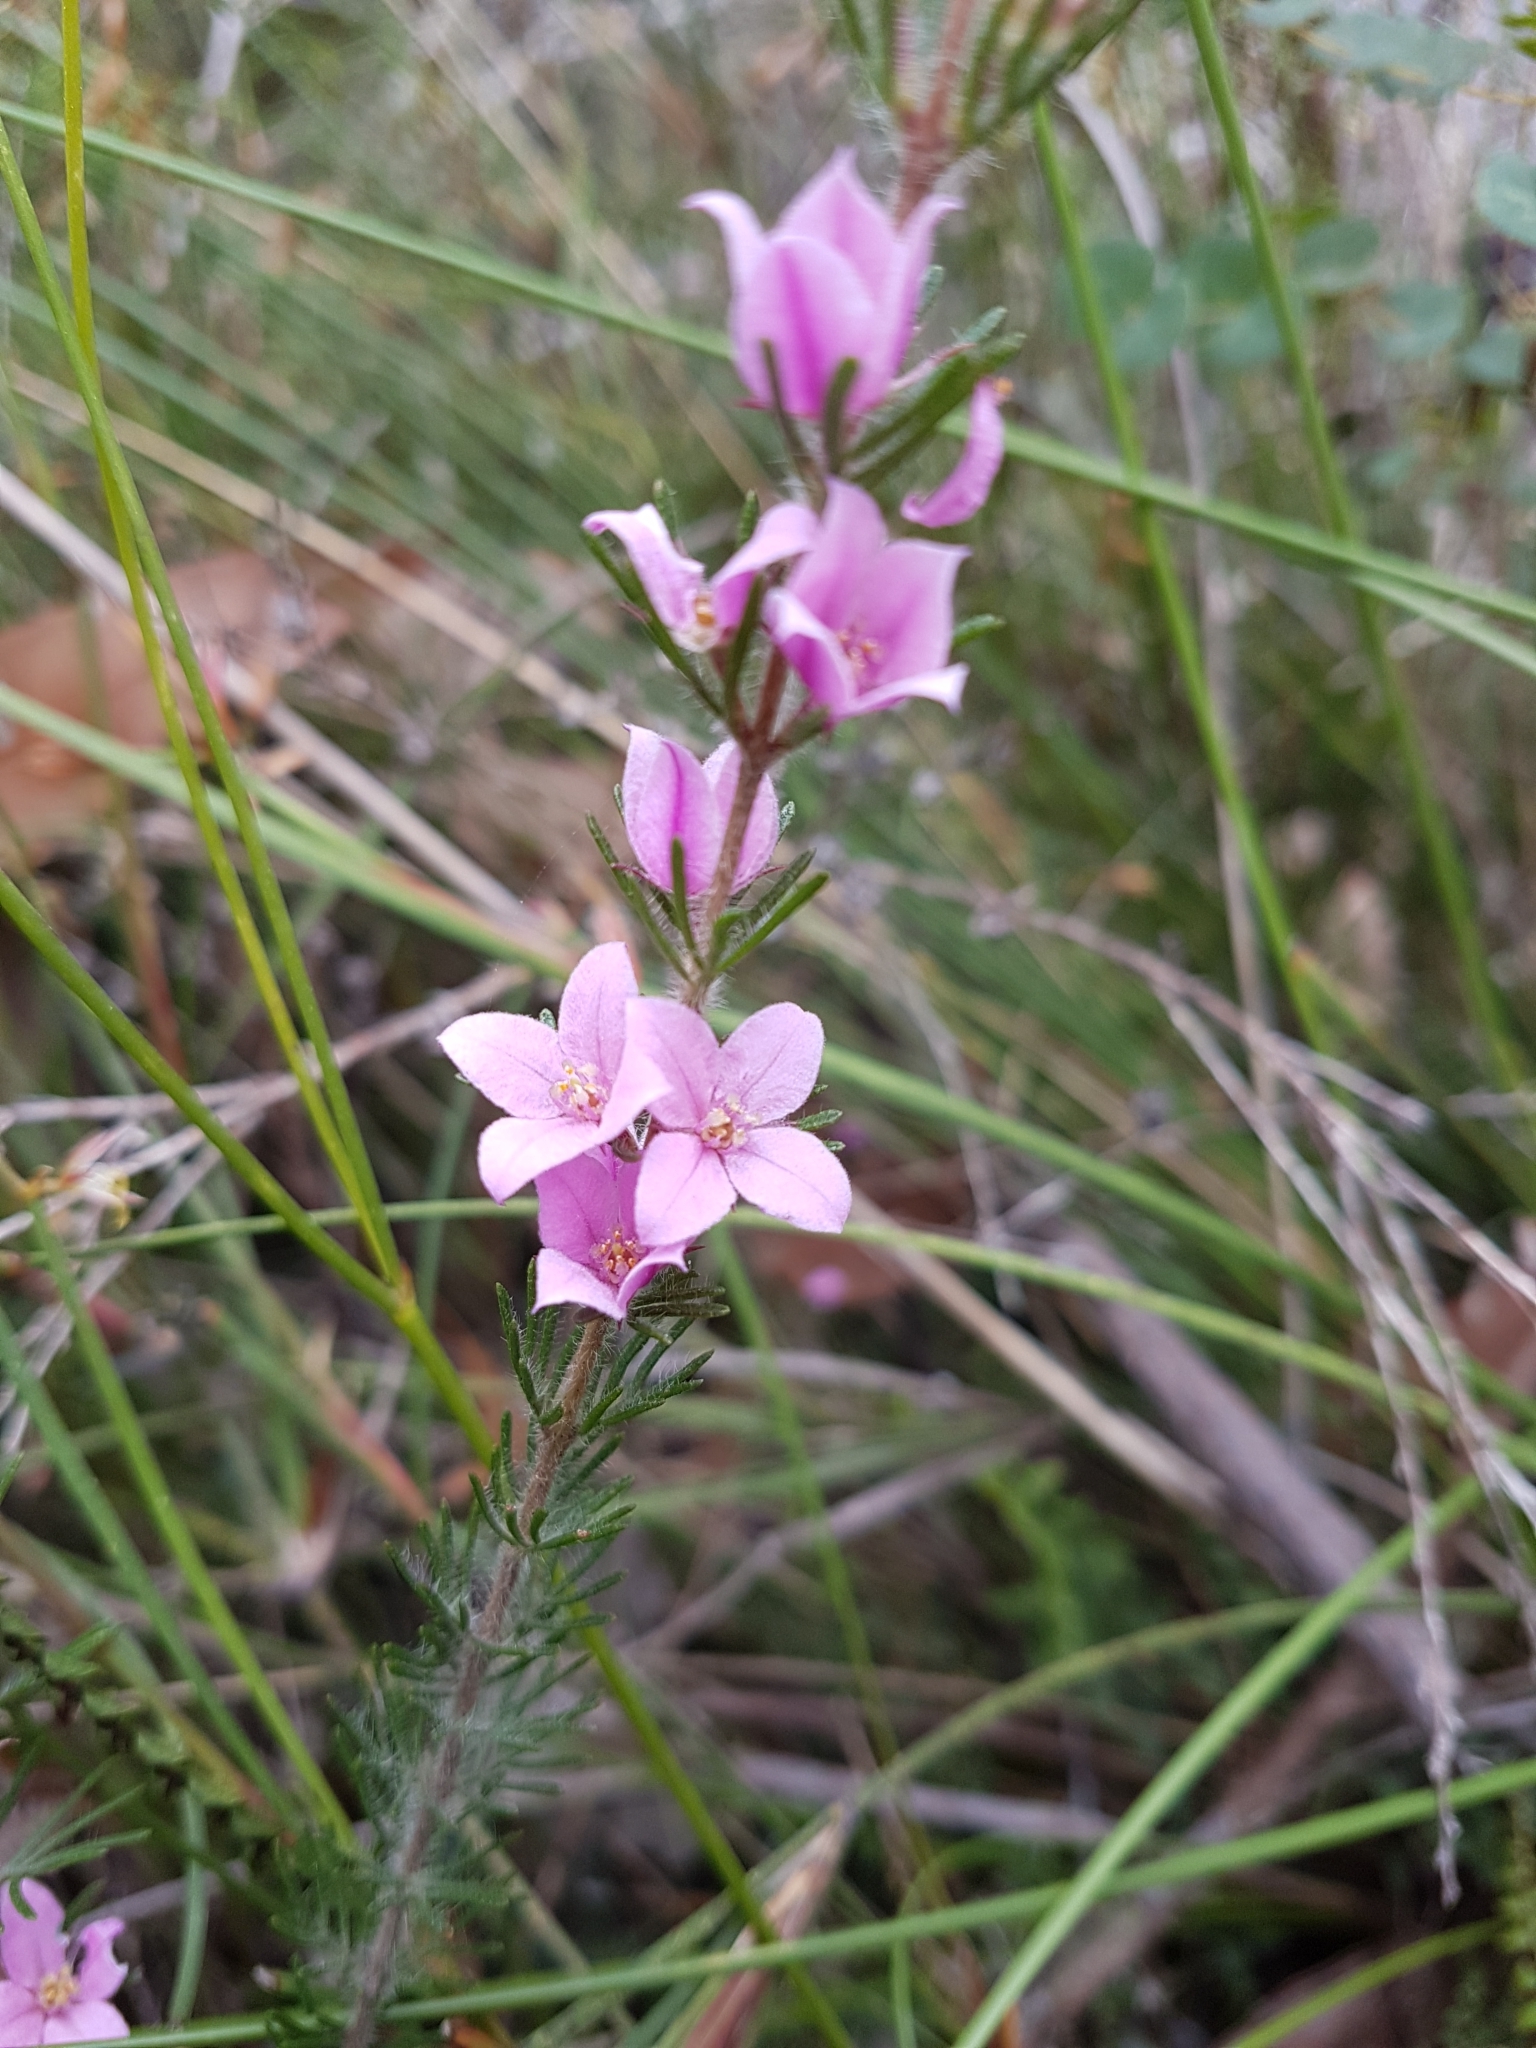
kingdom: Plantae
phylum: Tracheophyta
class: Magnoliopsida
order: Sapindales
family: Rutaceae
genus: Boronia
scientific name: Boronia stricta
